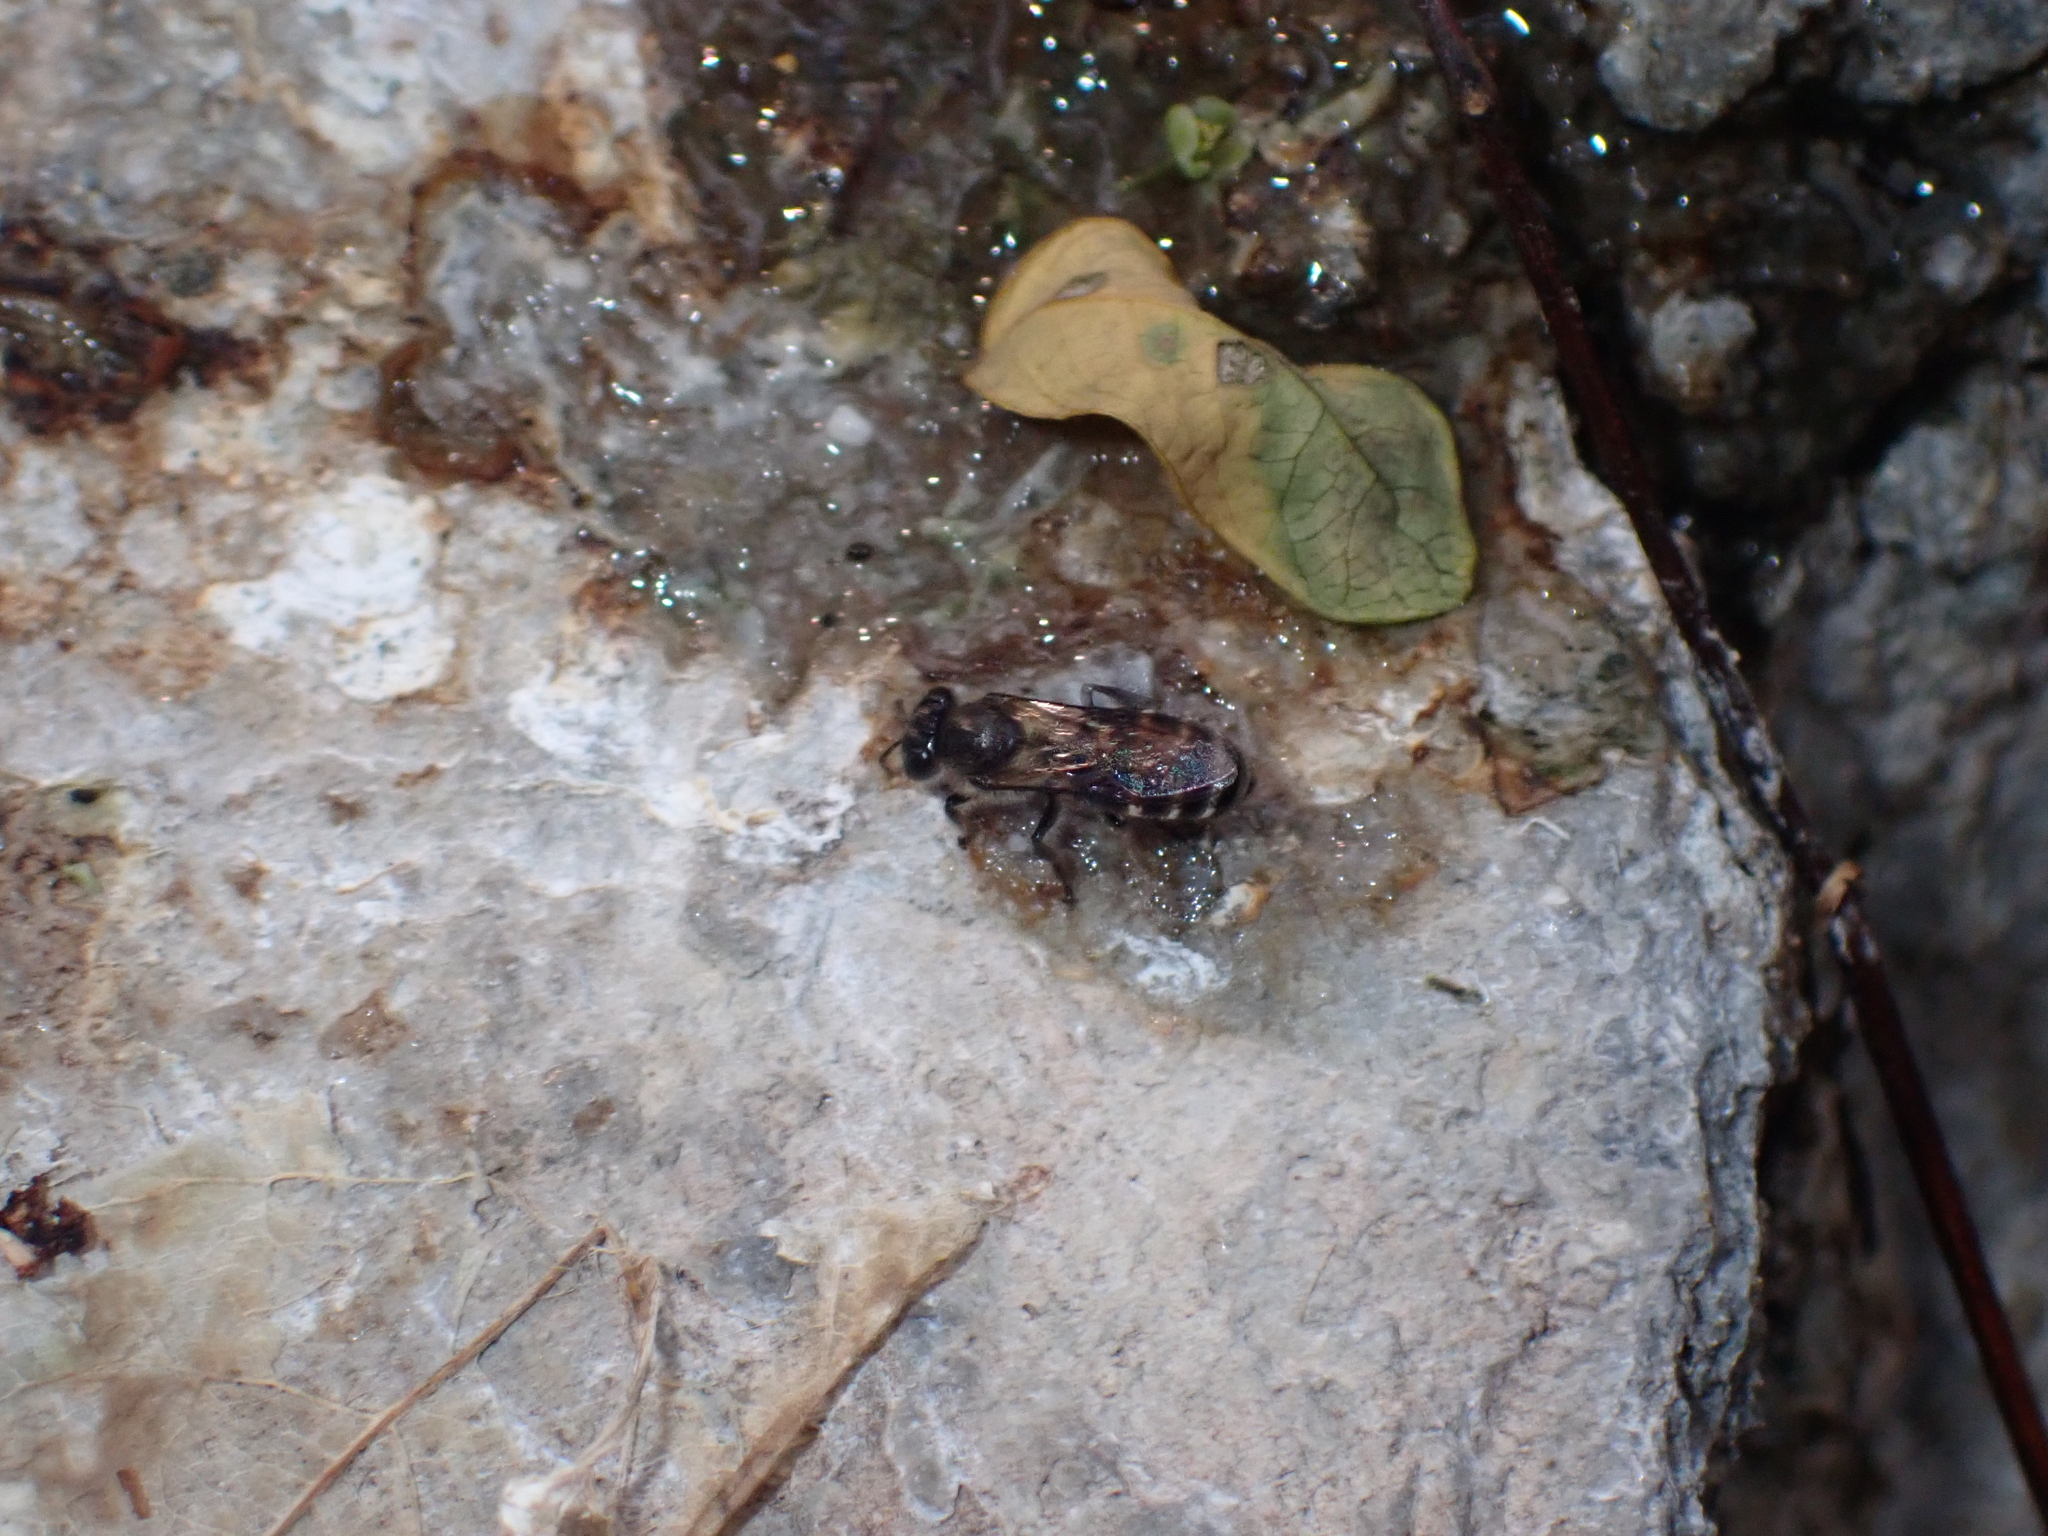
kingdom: Animalia
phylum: Arthropoda
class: Insecta
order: Hymenoptera
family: Apidae
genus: Apis
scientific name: Apis andreniformis
